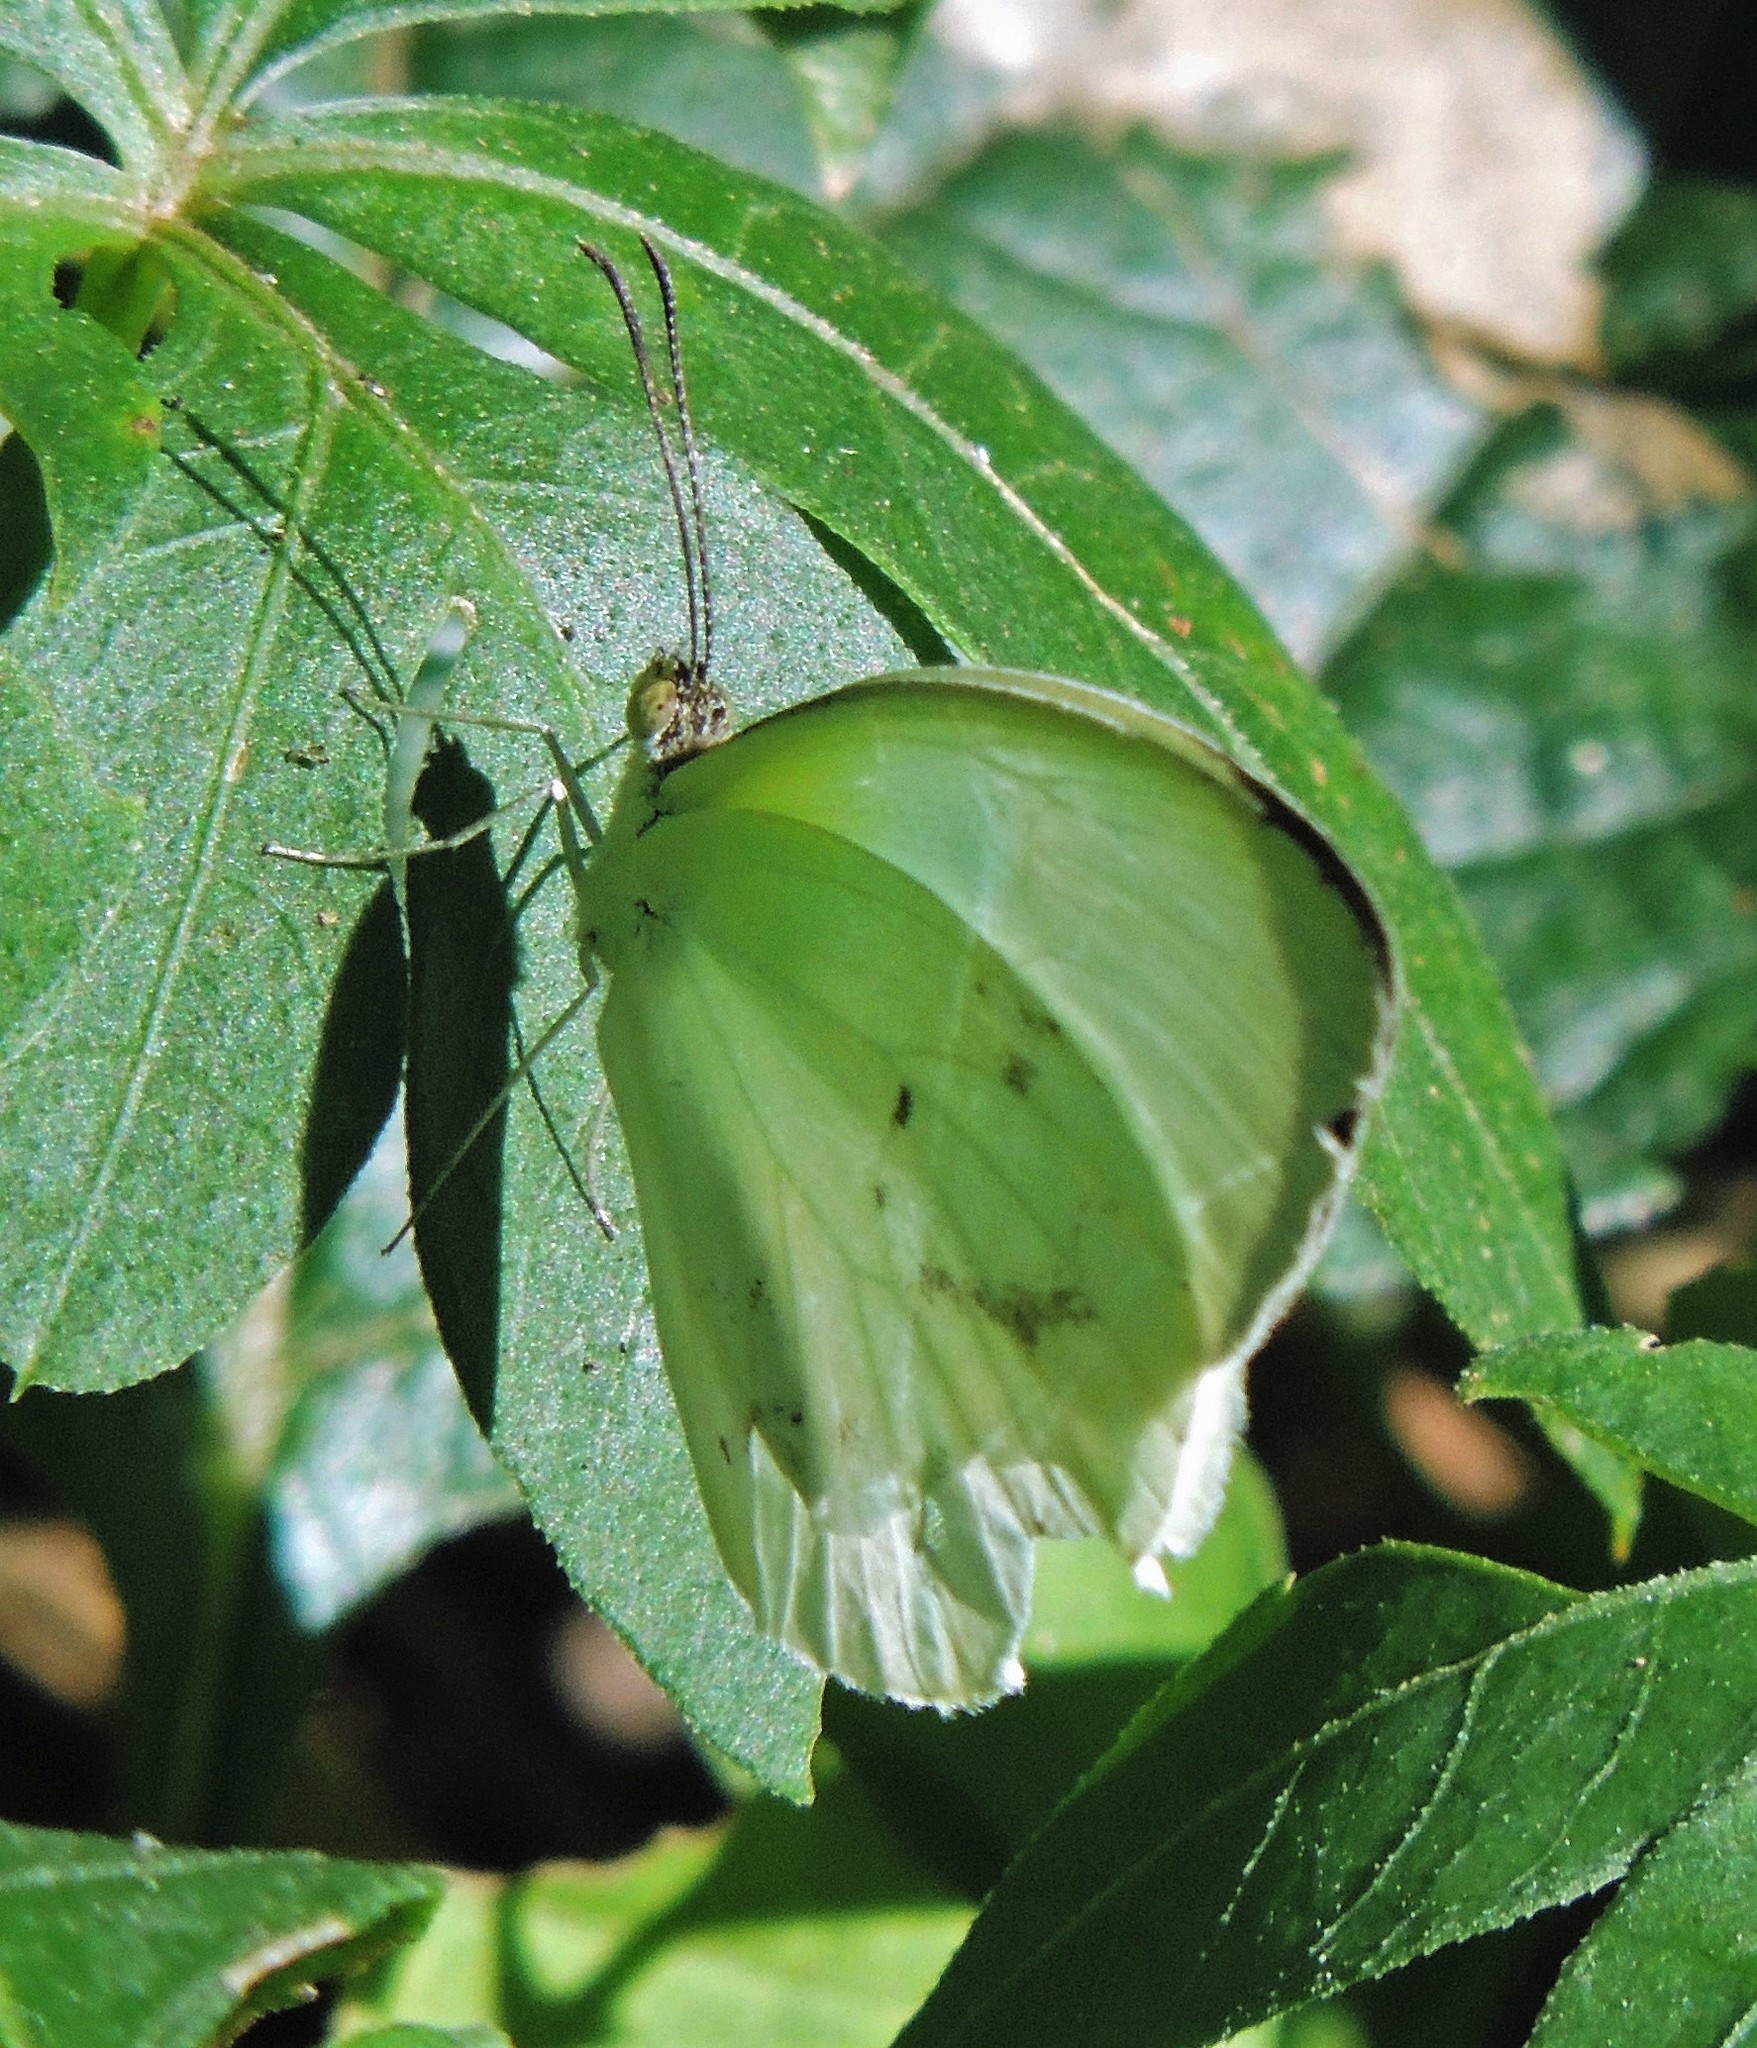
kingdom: Animalia
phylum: Arthropoda
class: Insecta
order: Lepidoptera
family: Pieridae
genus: Abaeis
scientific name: Abaeis albula
